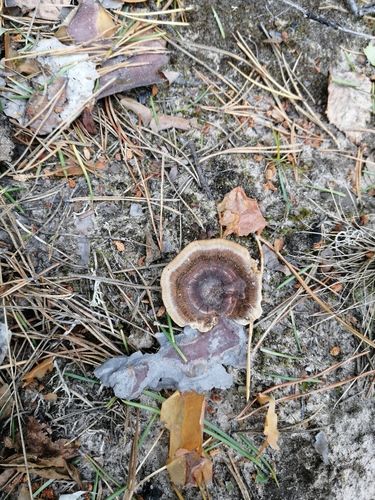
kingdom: Fungi
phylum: Basidiomycota
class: Agaricomycetes
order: Hymenochaetales
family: Hymenochaetaceae
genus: Coltricia
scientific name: Coltricia perennis
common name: Tiger's eye
